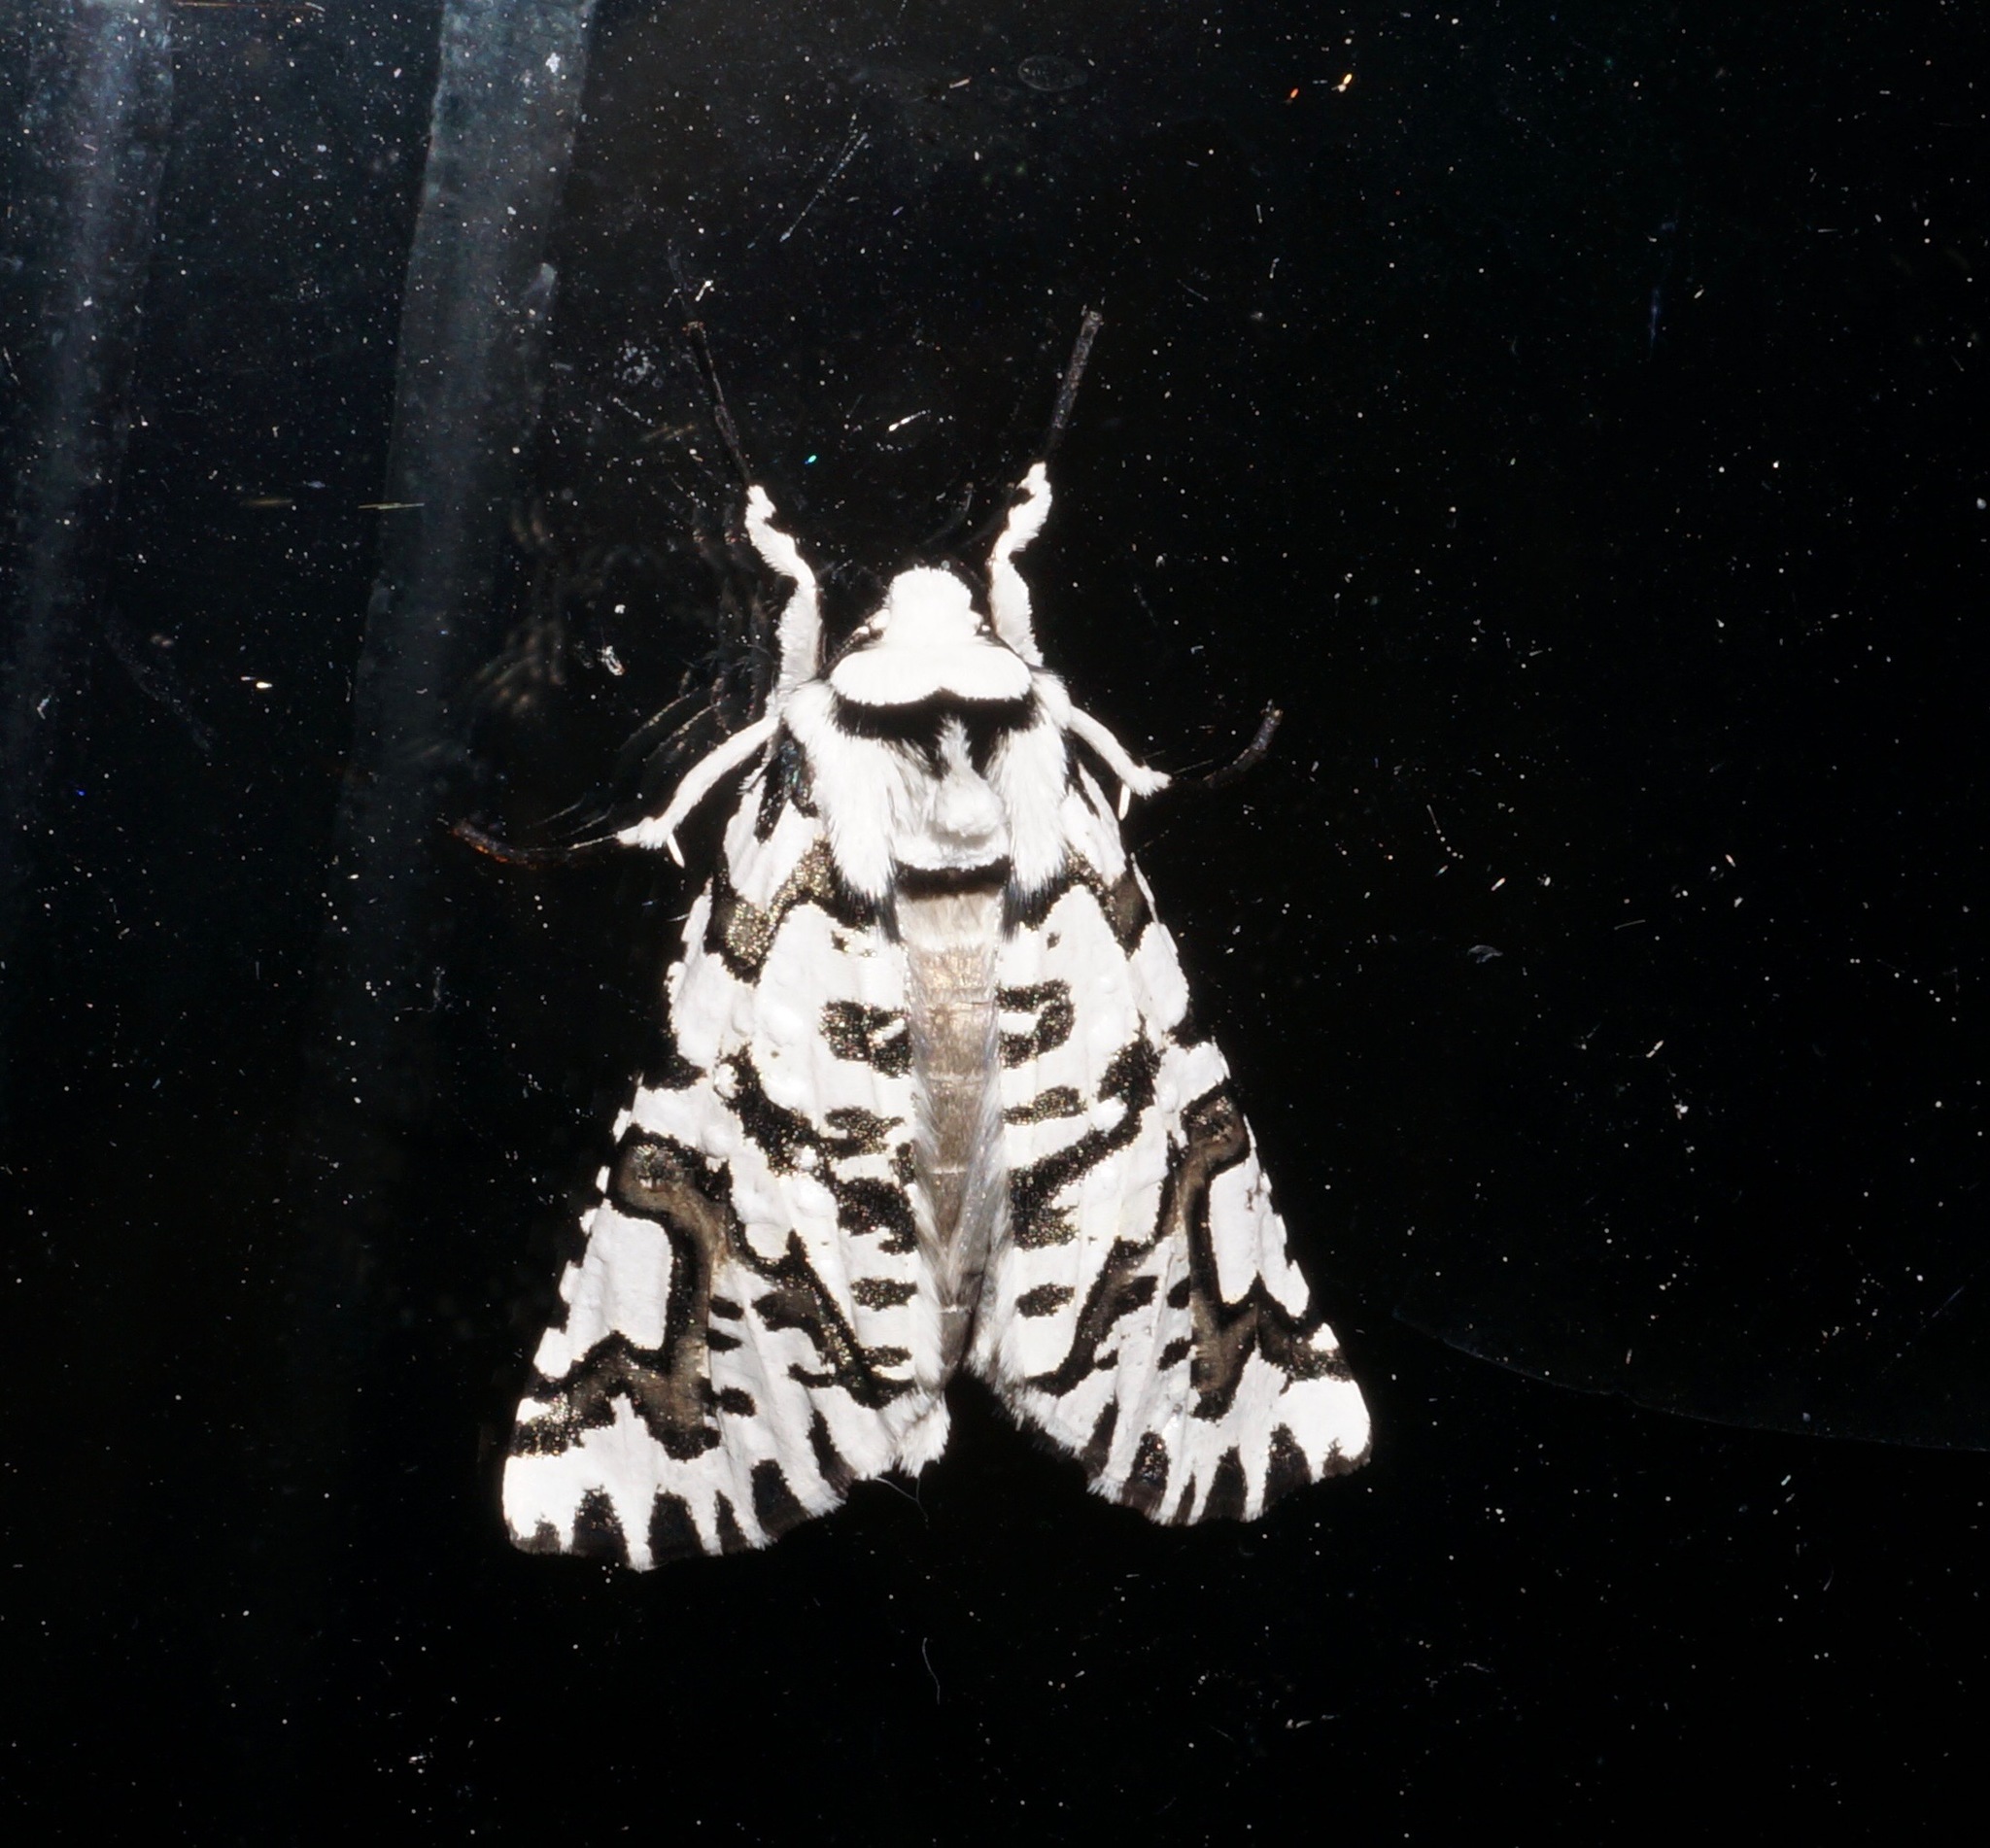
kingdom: Animalia
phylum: Arthropoda
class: Insecta
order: Lepidoptera
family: Geometridae
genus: Declana
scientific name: Declana
